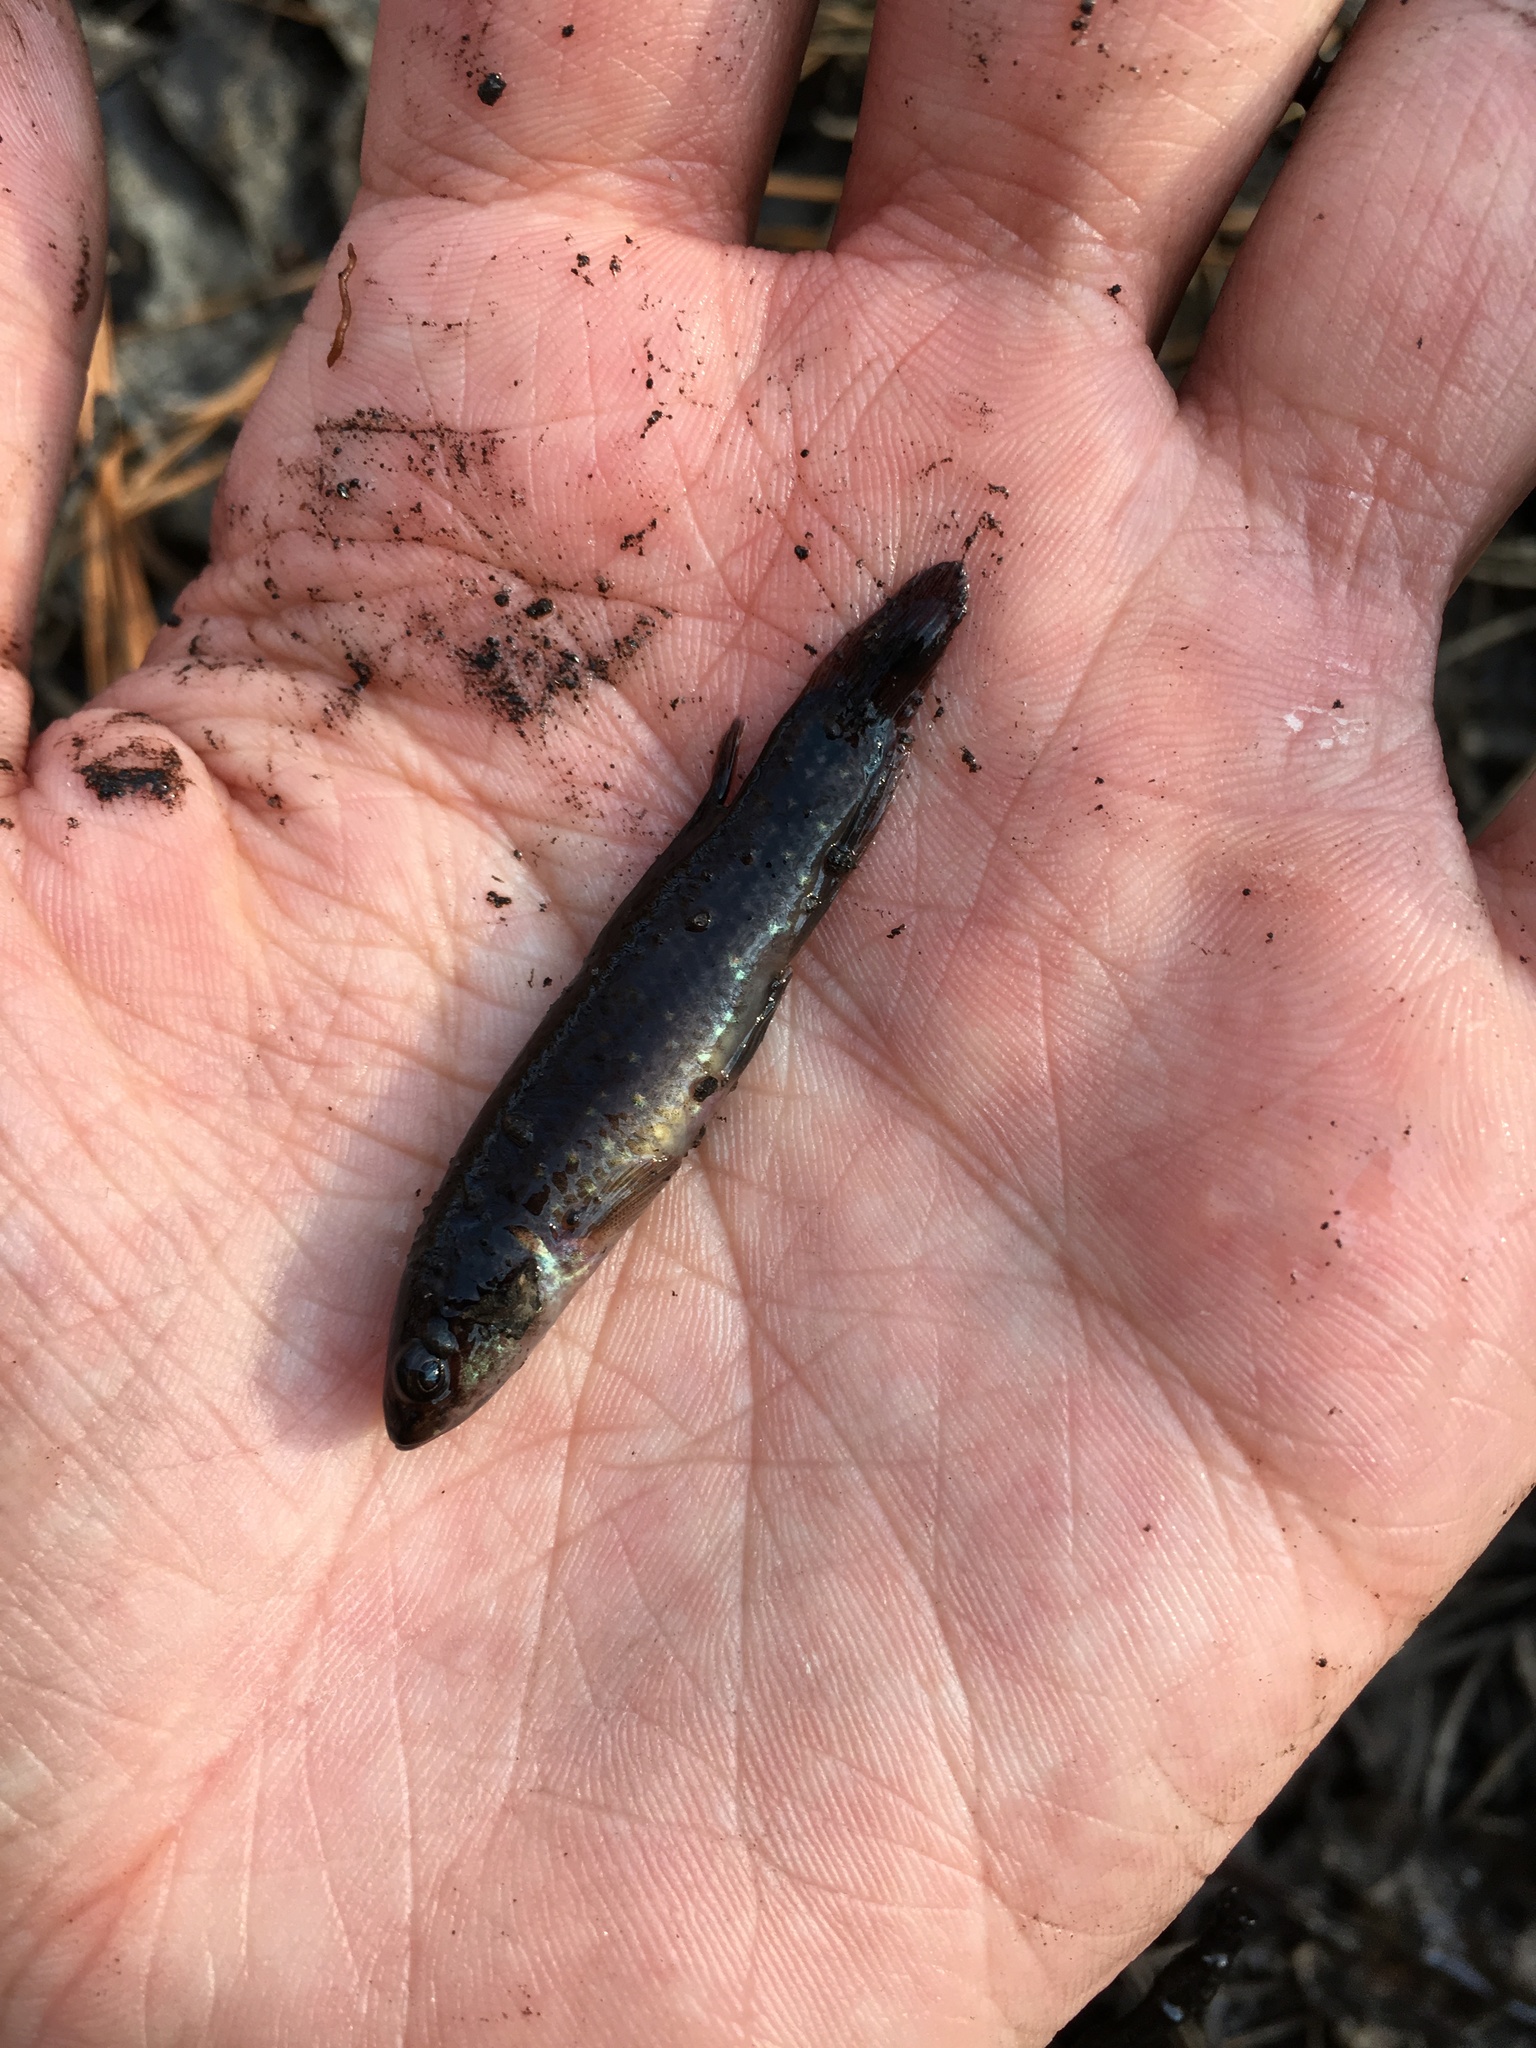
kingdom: Animalia
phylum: Chordata
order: Esociformes
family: Umbridae
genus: Umbra
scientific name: Umbra pygmaea
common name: Eastern mudminnow
